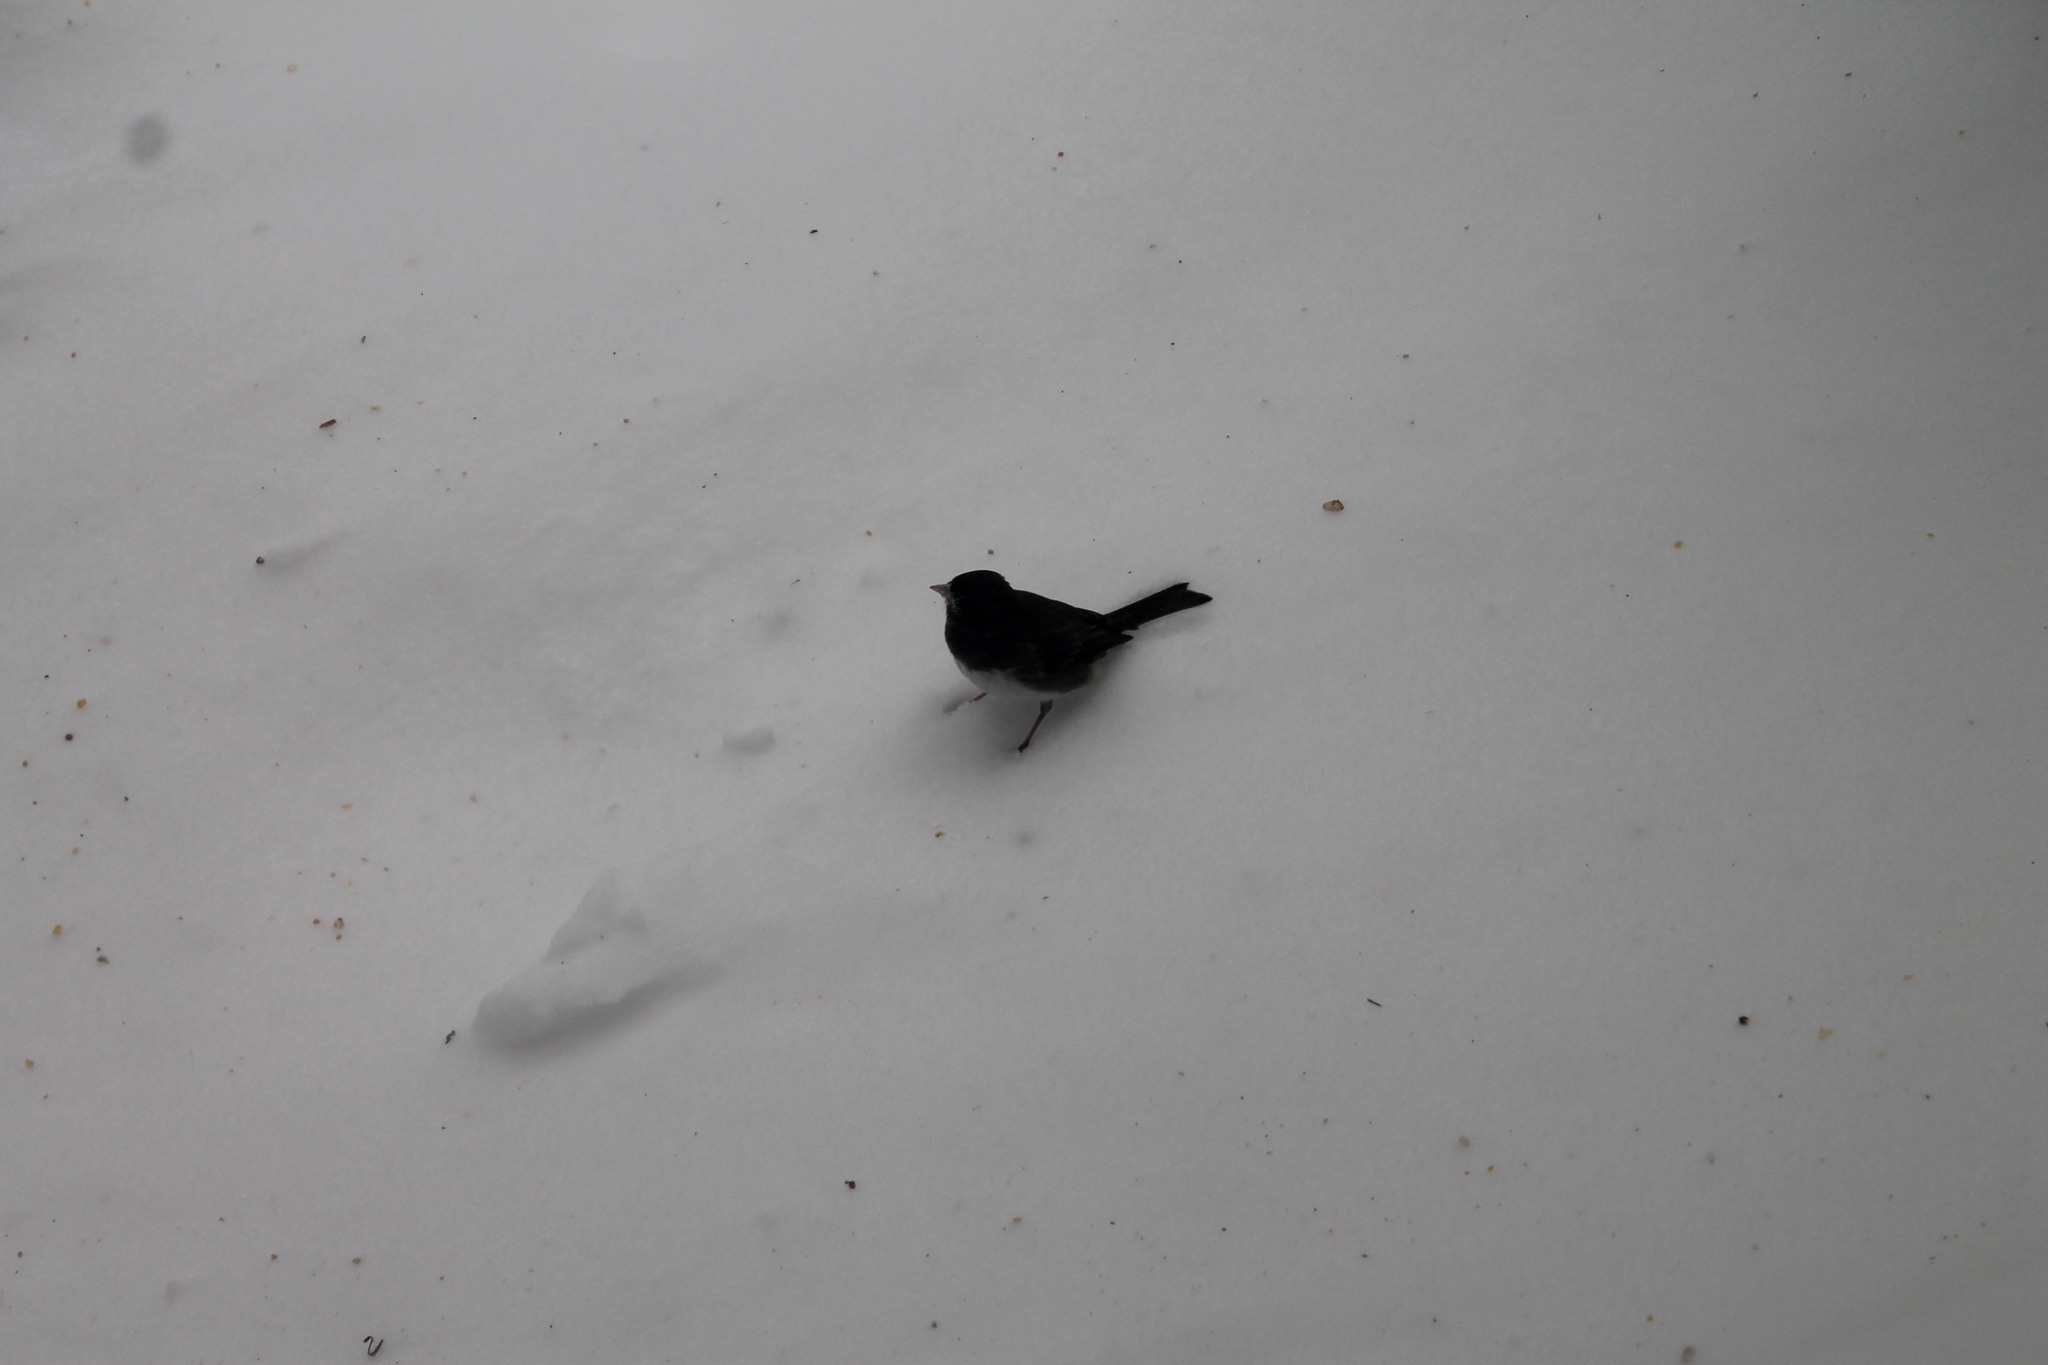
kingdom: Animalia
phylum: Chordata
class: Aves
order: Passeriformes
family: Passerellidae
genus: Junco
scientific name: Junco hyemalis
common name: Dark-eyed junco
